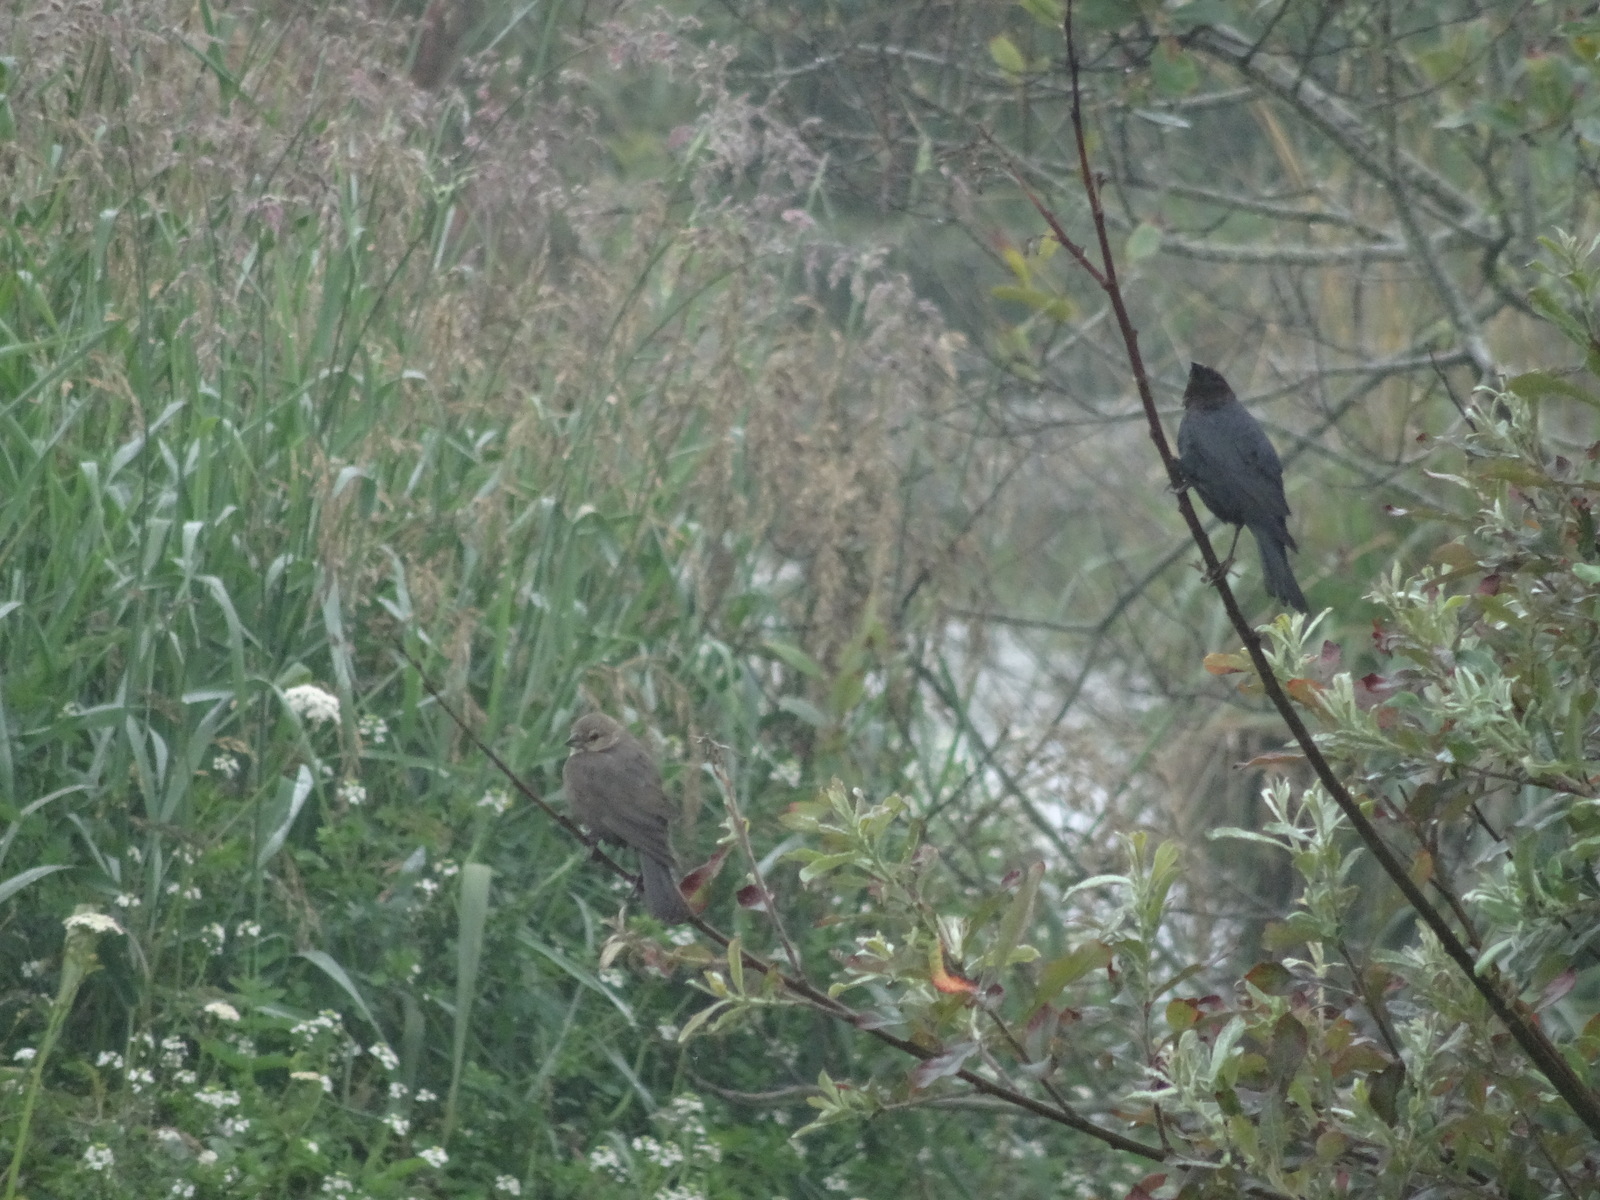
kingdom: Animalia
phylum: Chordata
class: Aves
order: Passeriformes
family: Icteridae
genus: Molothrus
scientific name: Molothrus ater
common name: Brown-headed cowbird
